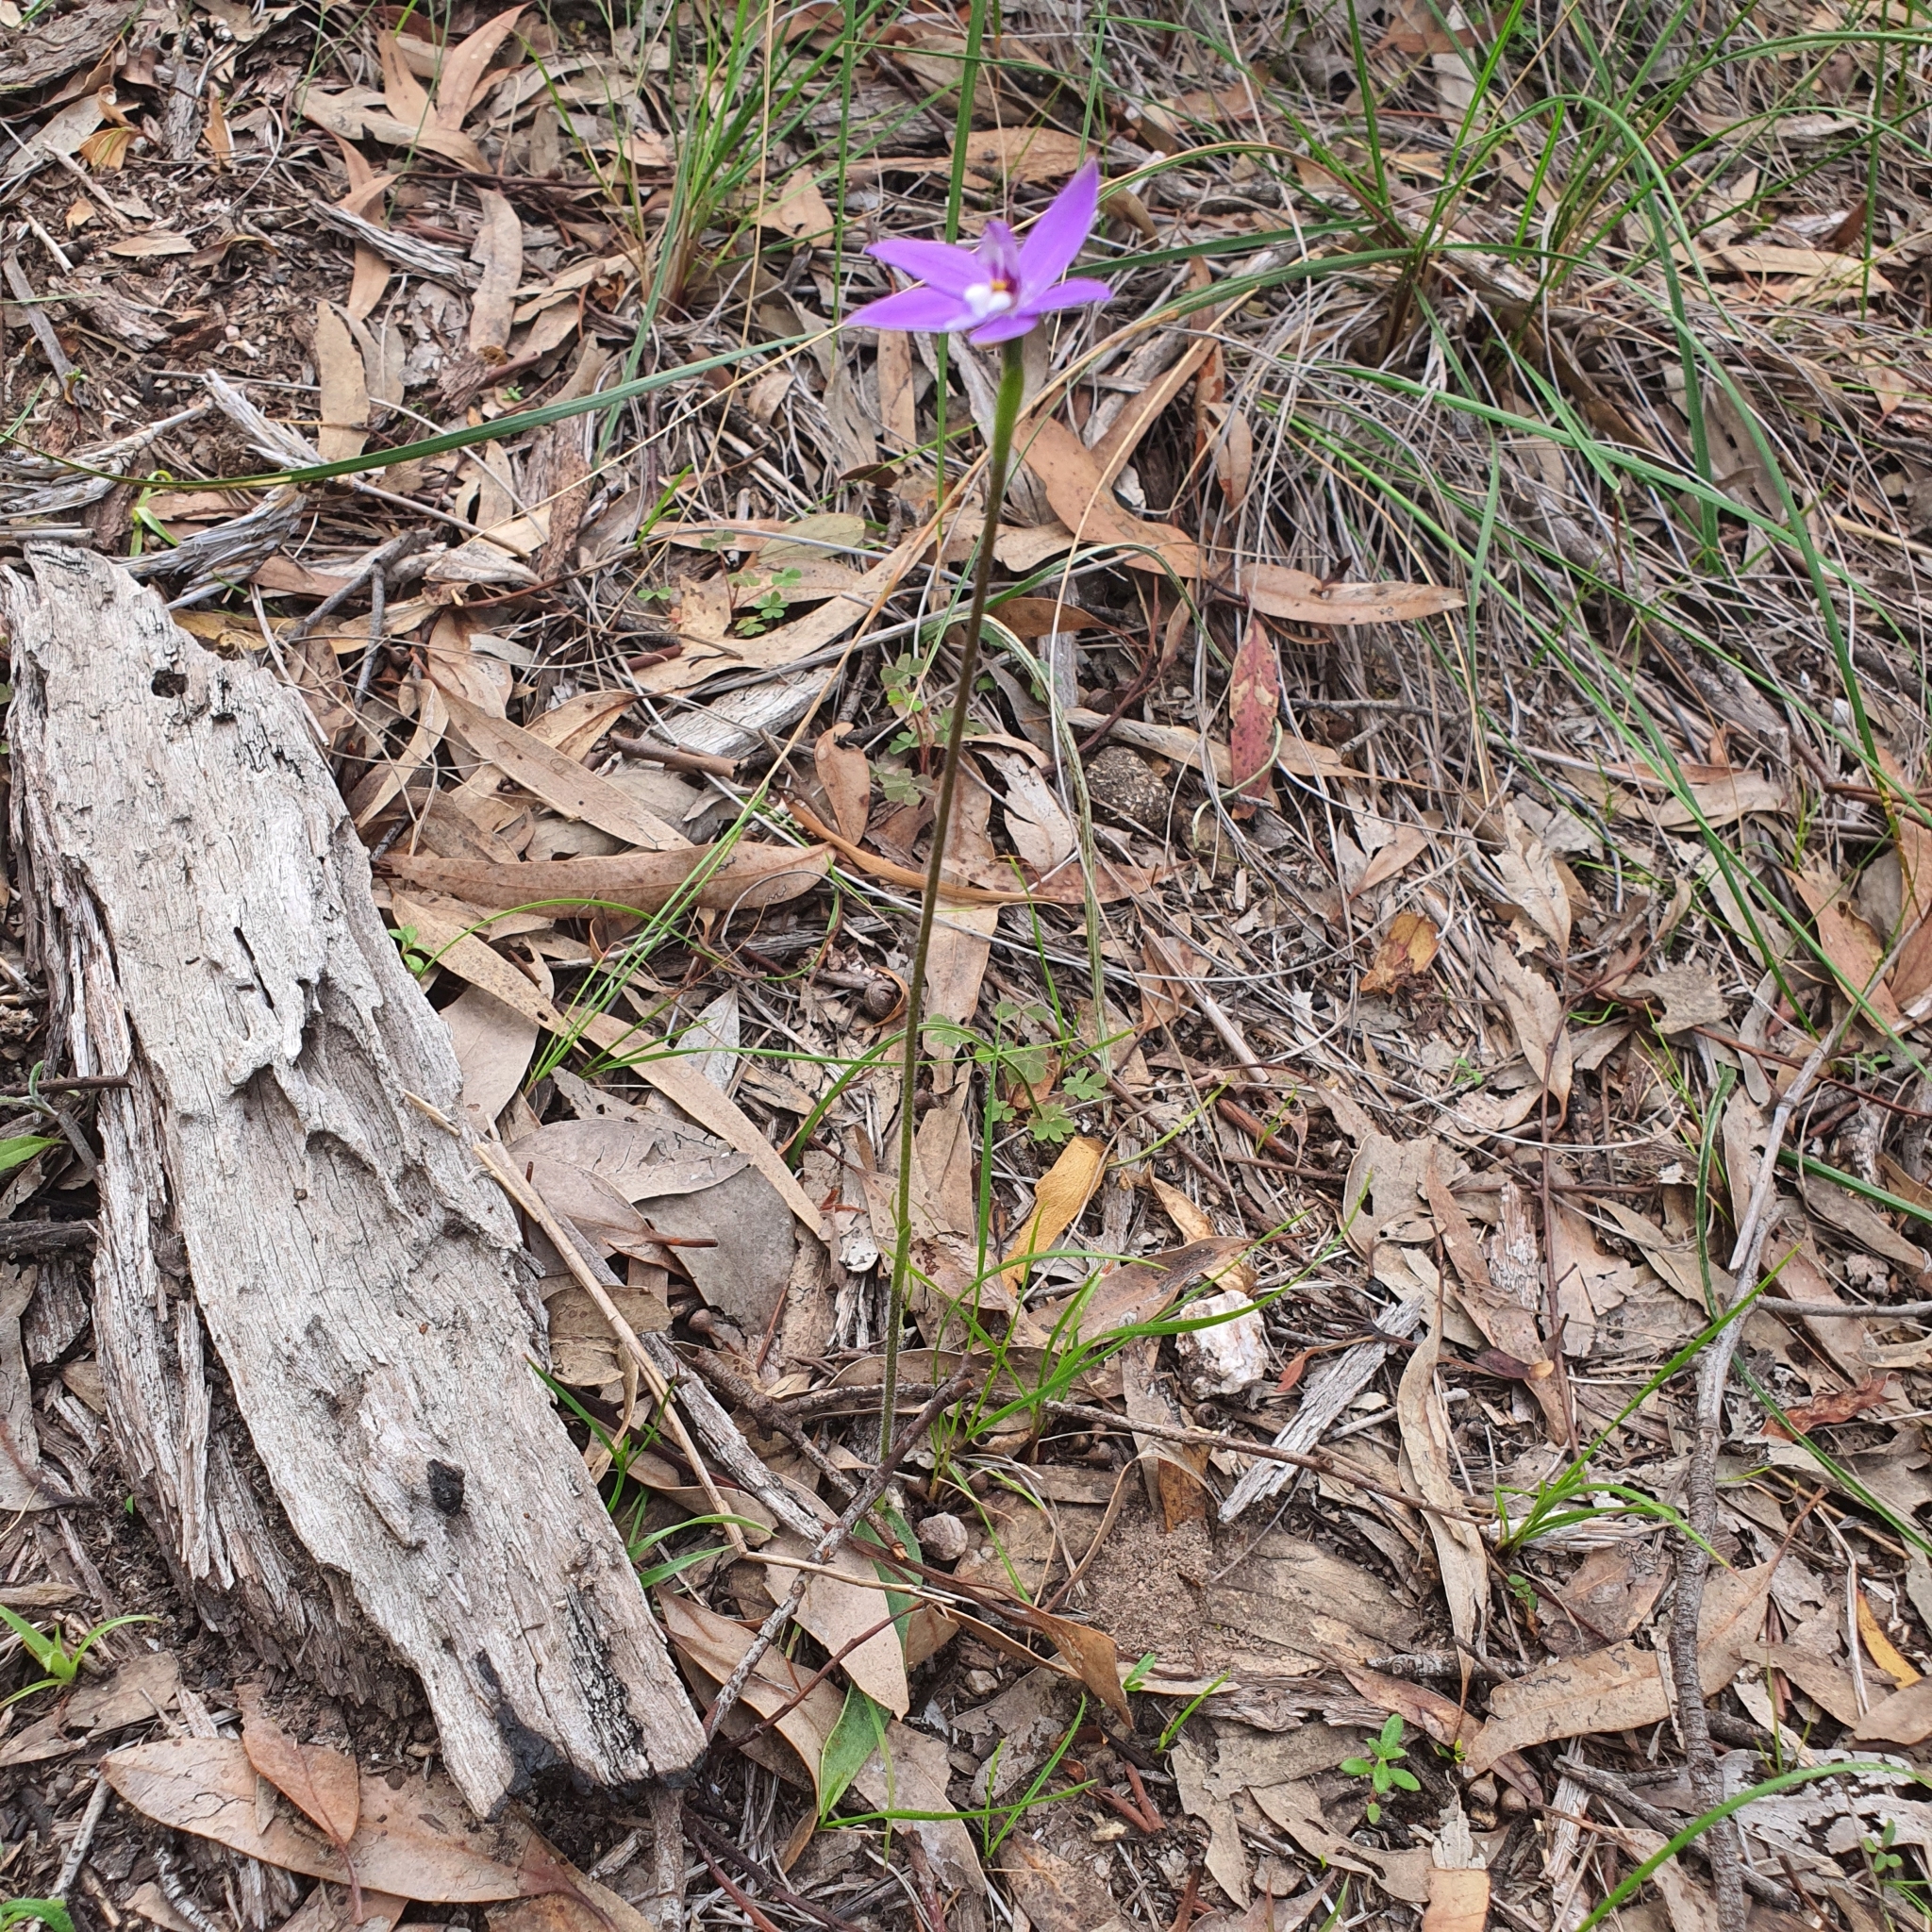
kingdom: Plantae
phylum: Tracheophyta
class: Liliopsida
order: Asparagales
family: Orchidaceae
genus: Caladenia
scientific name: Caladenia major
